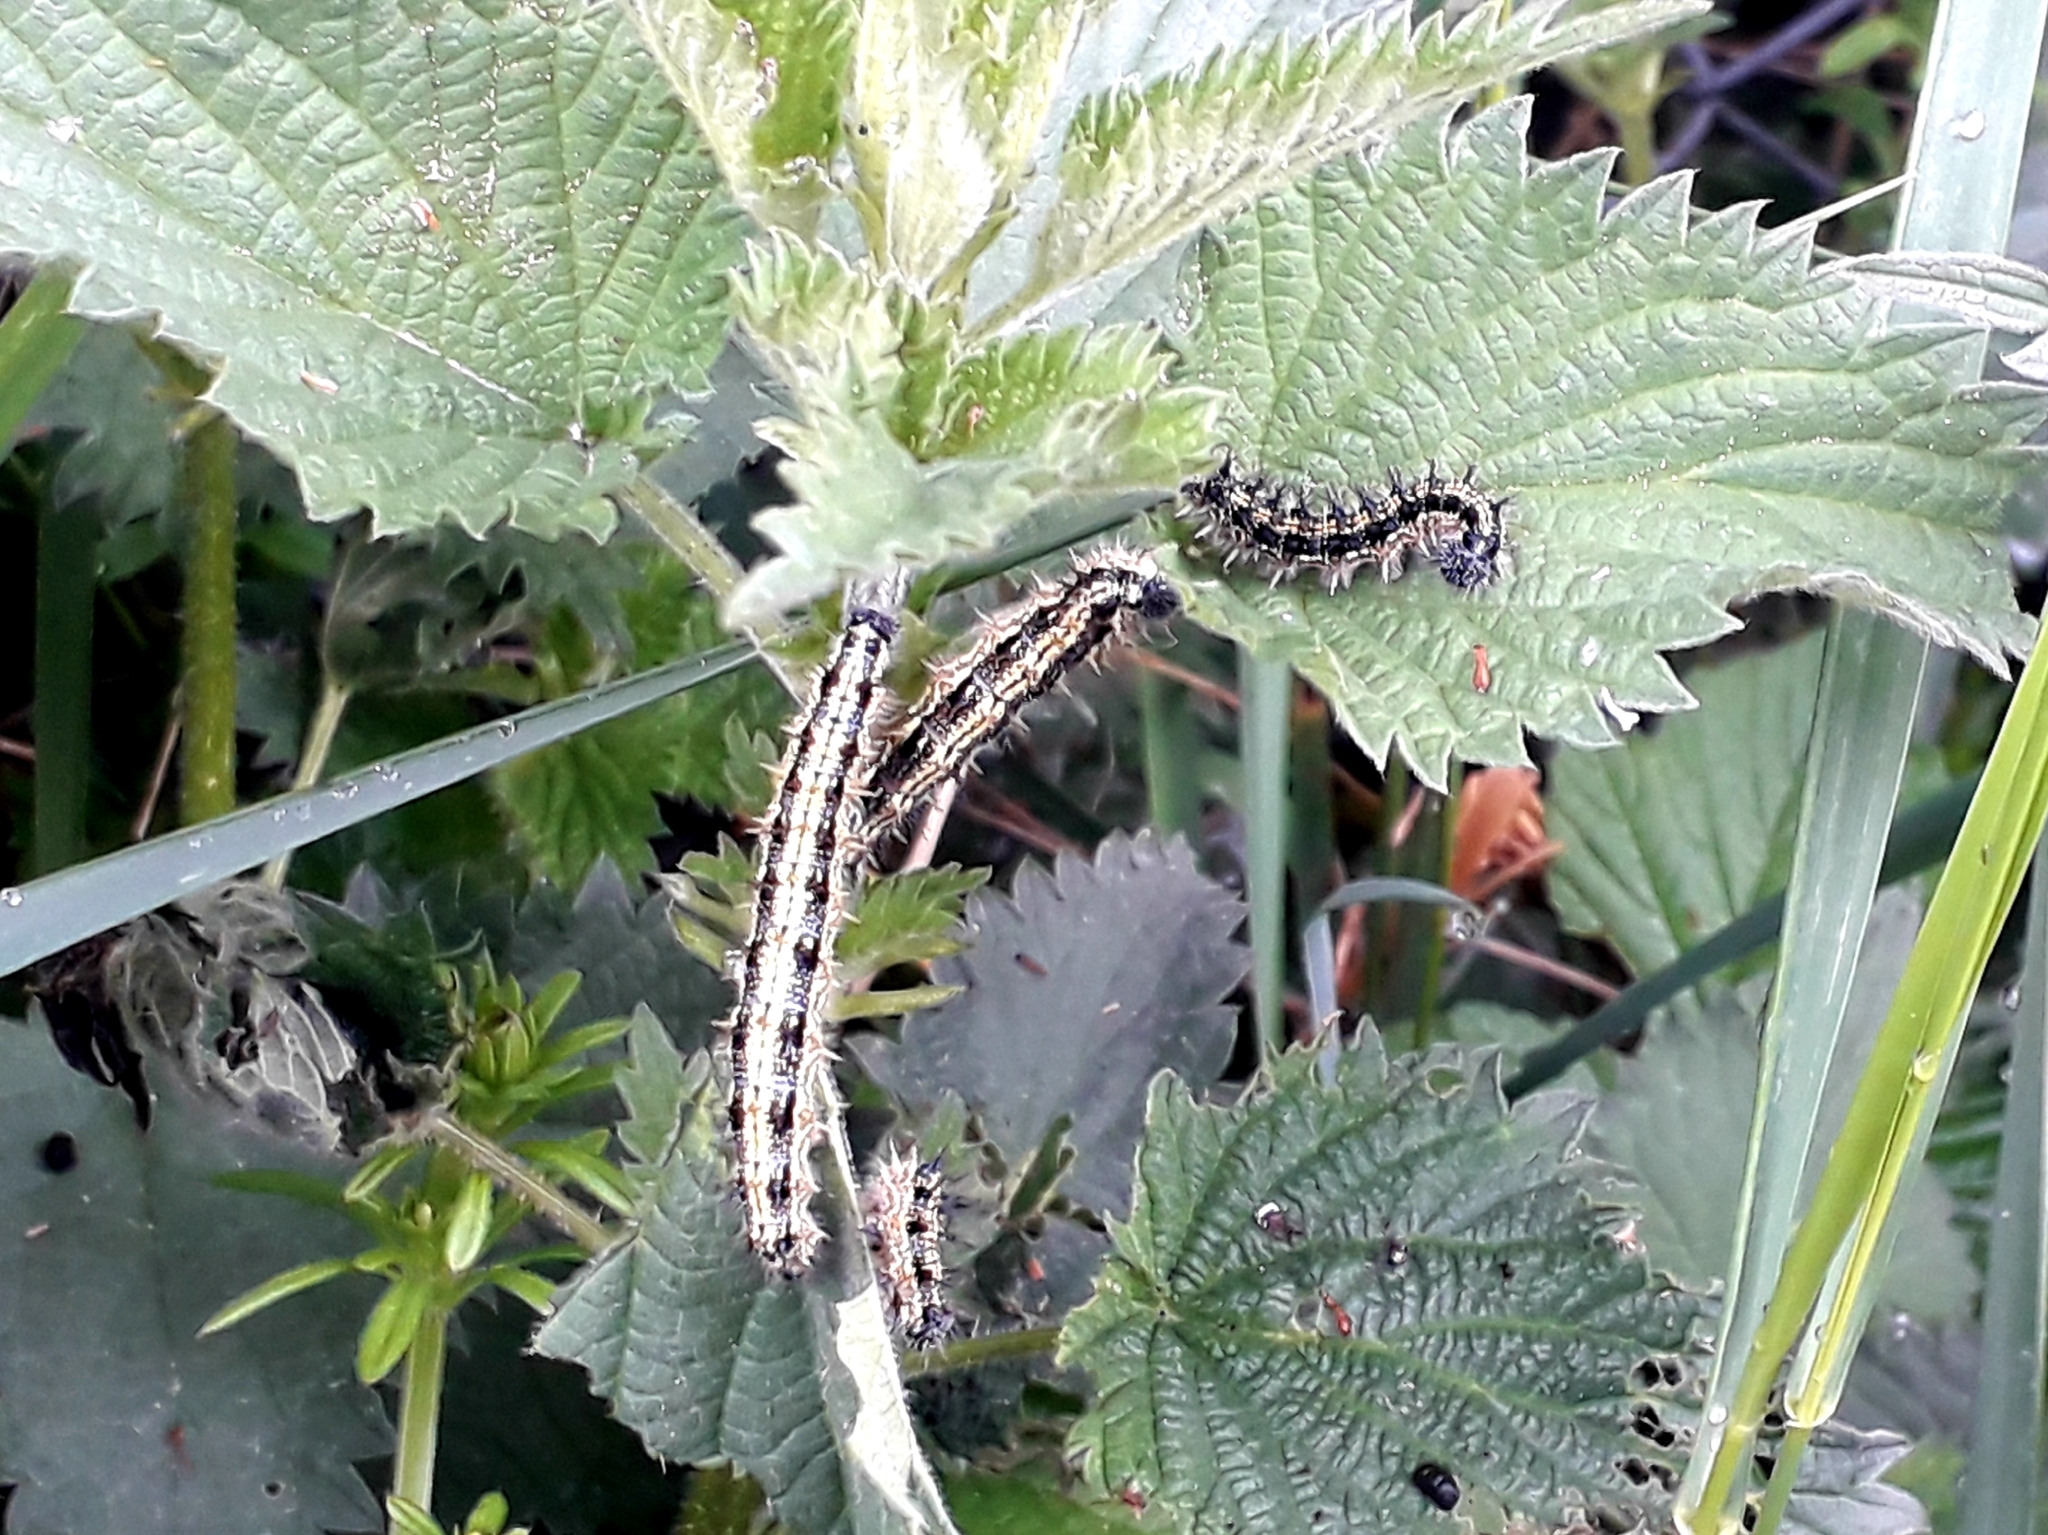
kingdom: Animalia
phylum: Arthropoda
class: Insecta
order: Lepidoptera
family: Nymphalidae
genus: Aglais
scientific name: Aglais urticae
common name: Small tortoiseshell
